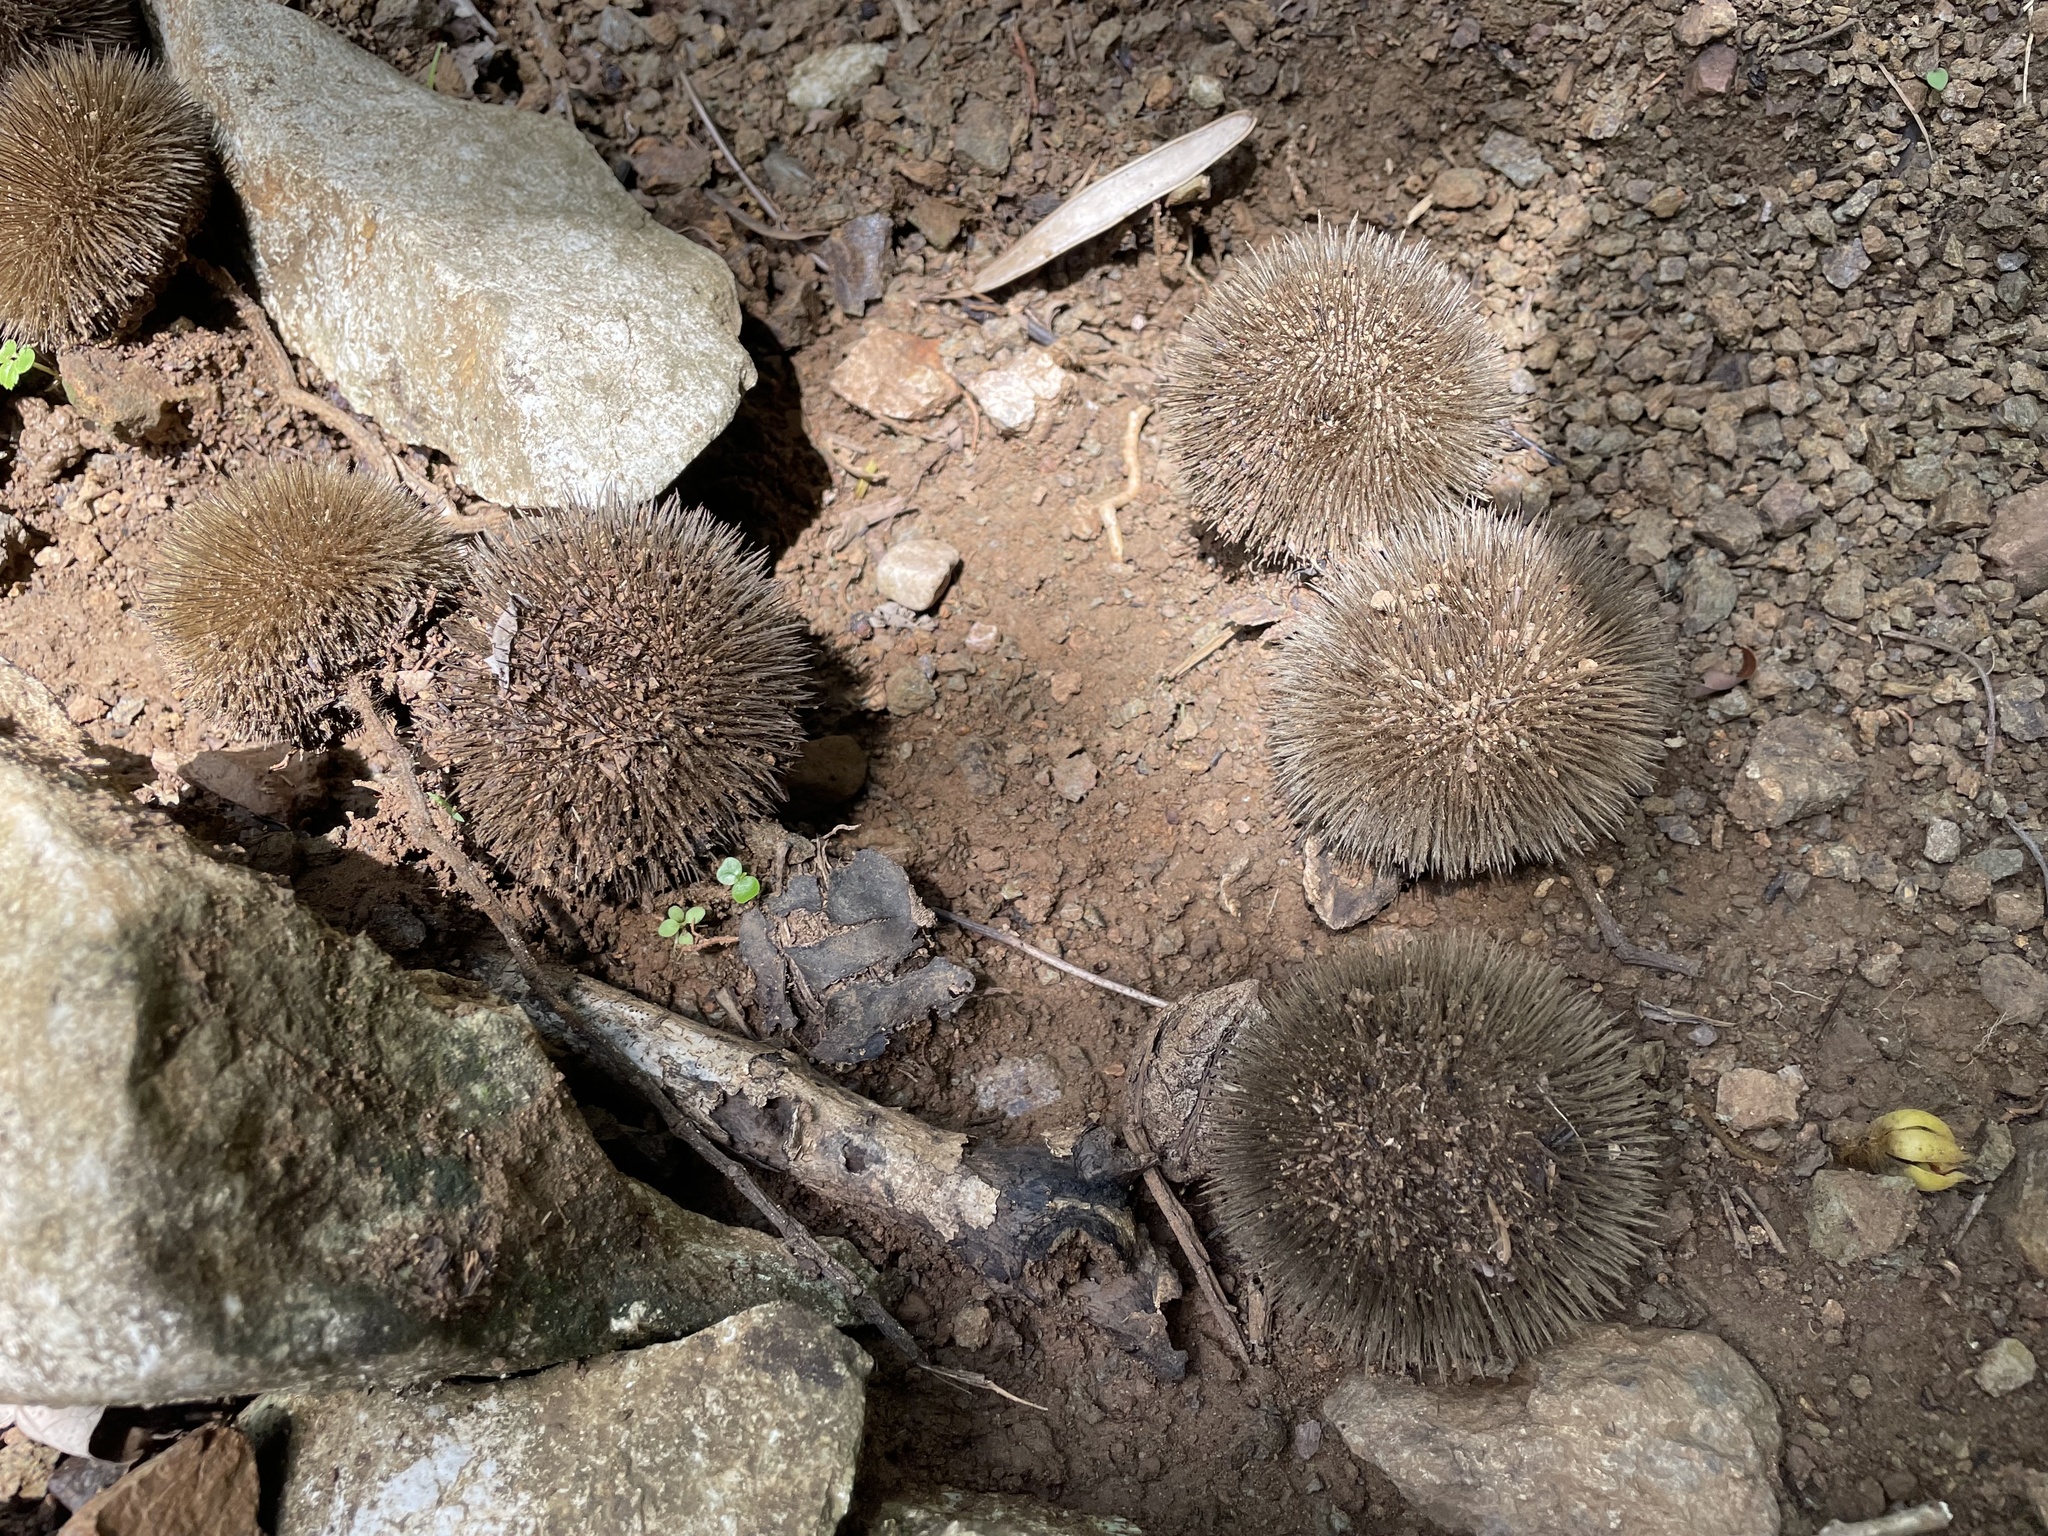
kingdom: Plantae
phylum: Tracheophyta
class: Magnoliopsida
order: Malvales
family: Malvaceae
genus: Apeiba
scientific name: Apeiba tibourbou
